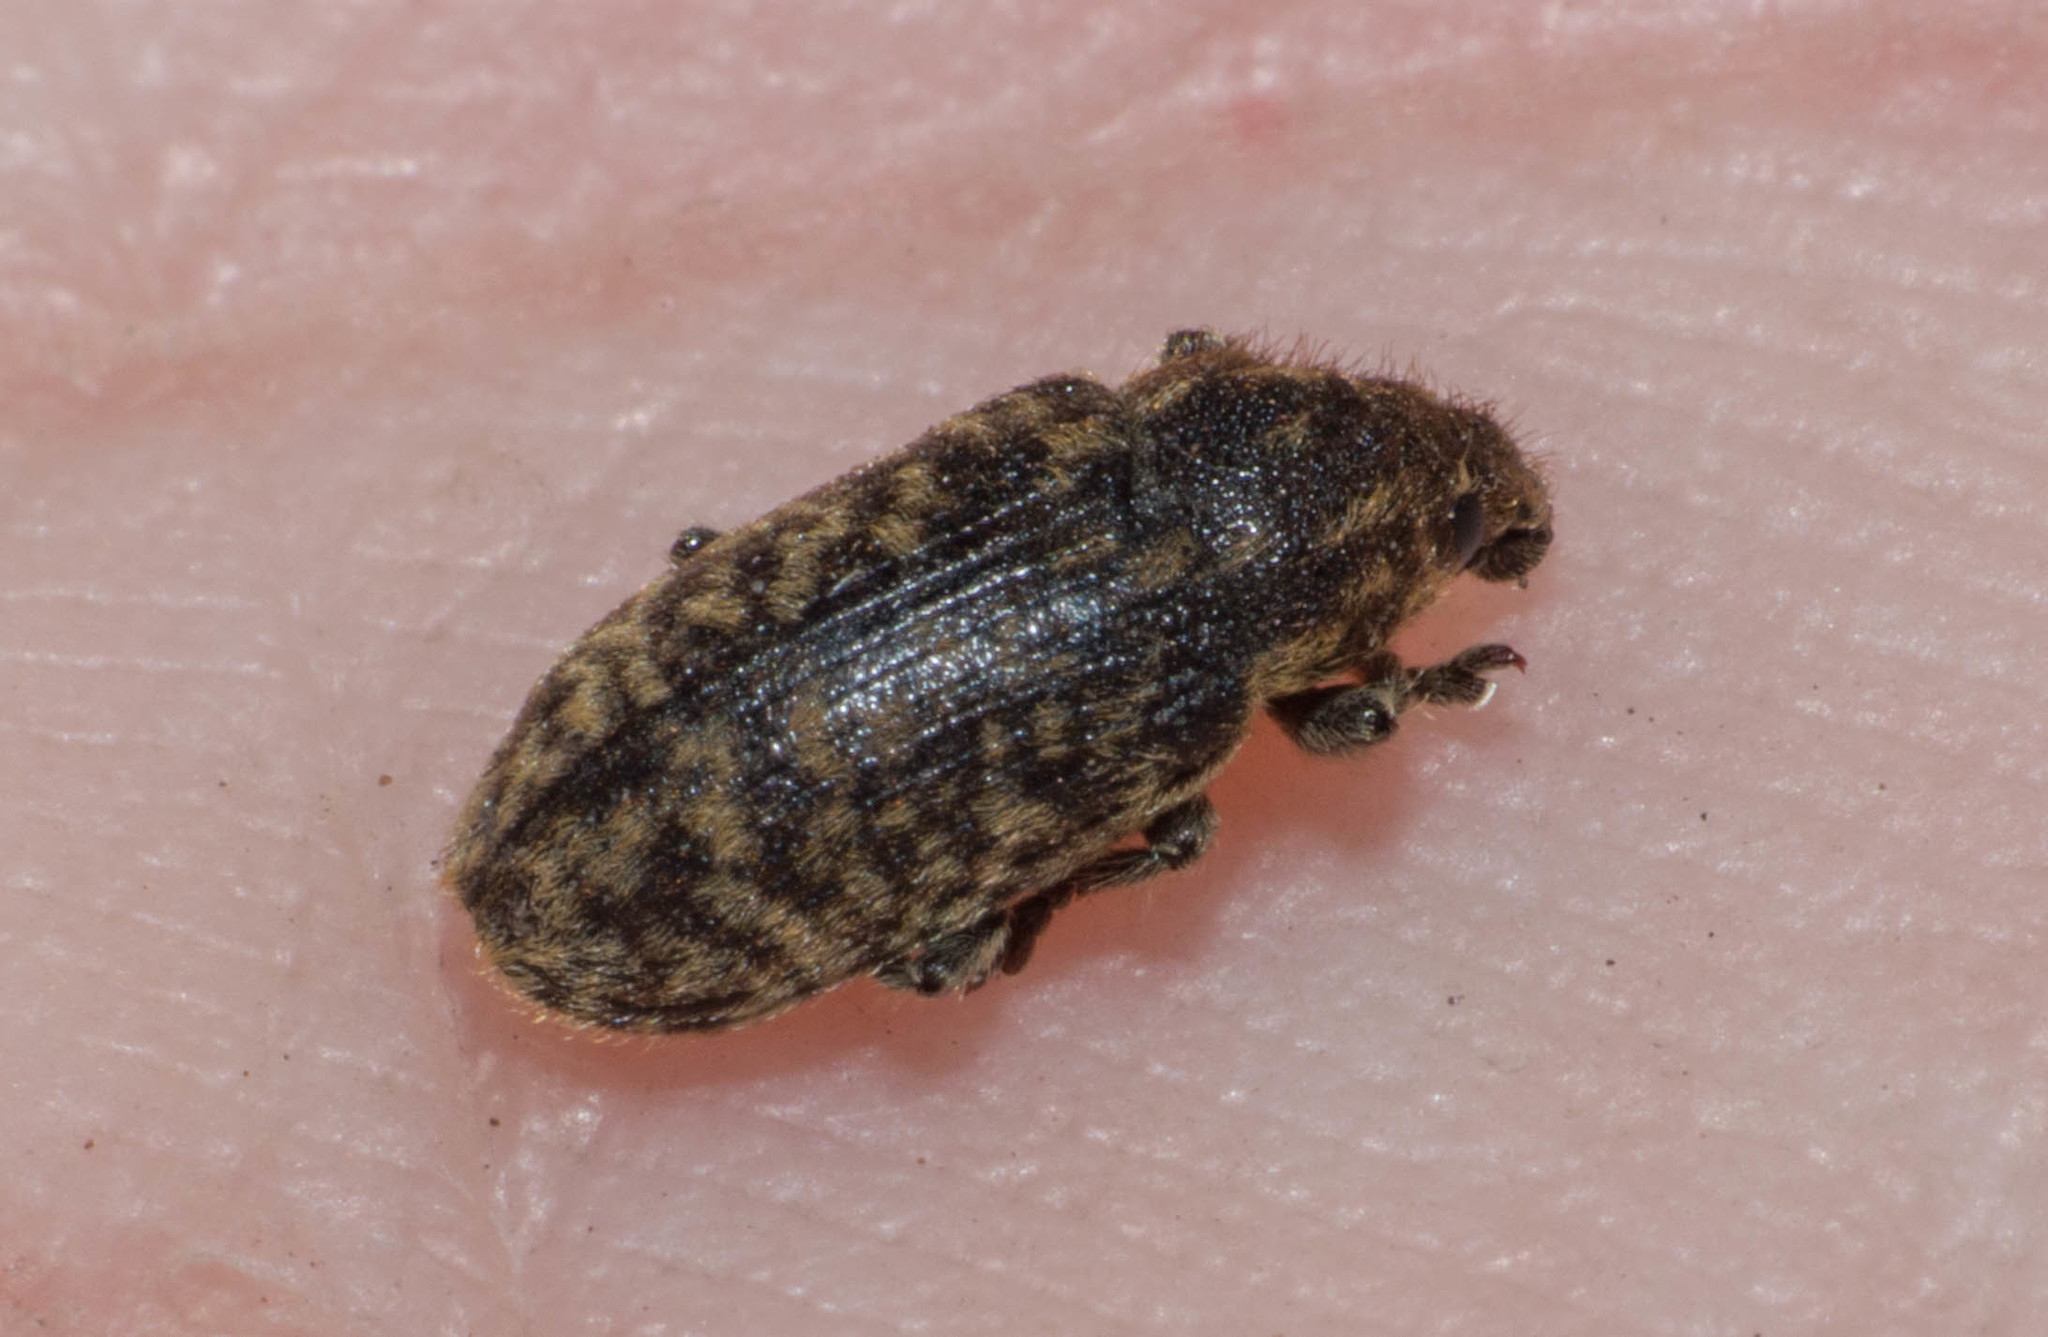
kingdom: Animalia
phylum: Arthropoda
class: Insecta
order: Coleoptera
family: Curculionidae
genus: Rhinocyllus
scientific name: Rhinocyllus conicus
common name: Weevil
